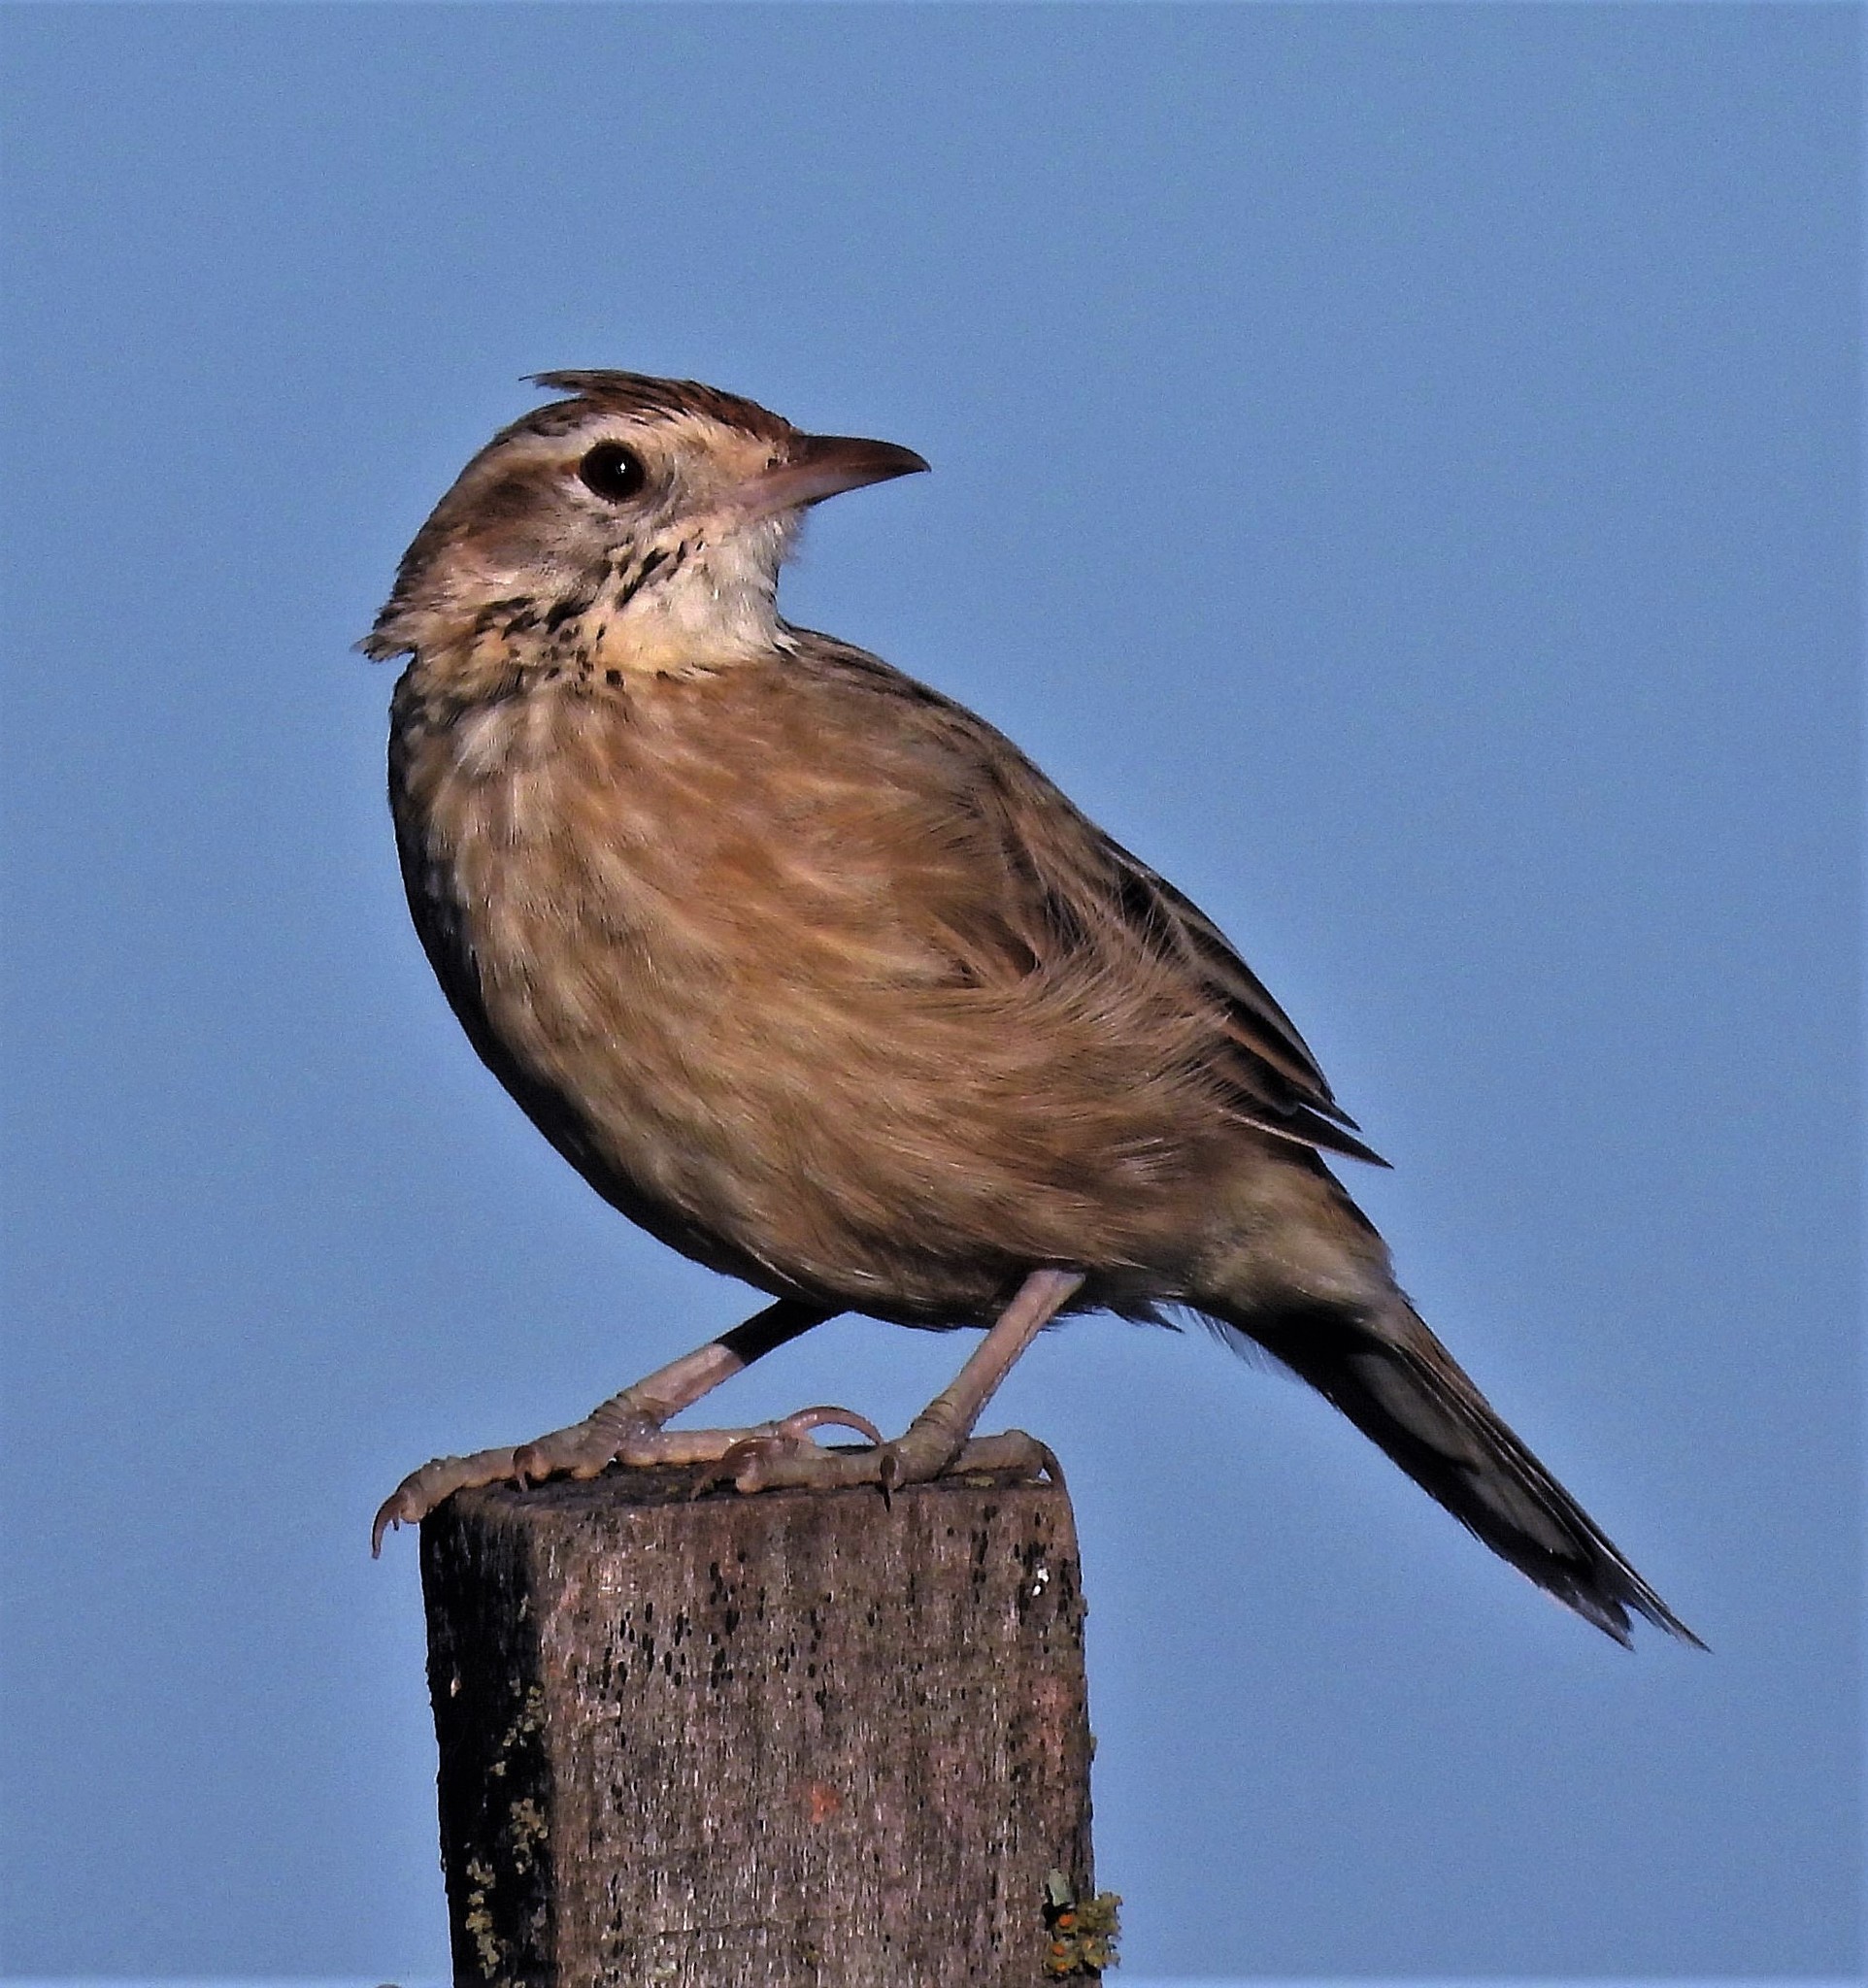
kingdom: Animalia
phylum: Chordata
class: Aves
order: Passeriformes
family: Furnariidae
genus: Anumbius
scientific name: Anumbius annumbi
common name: Firewood-gatherer
